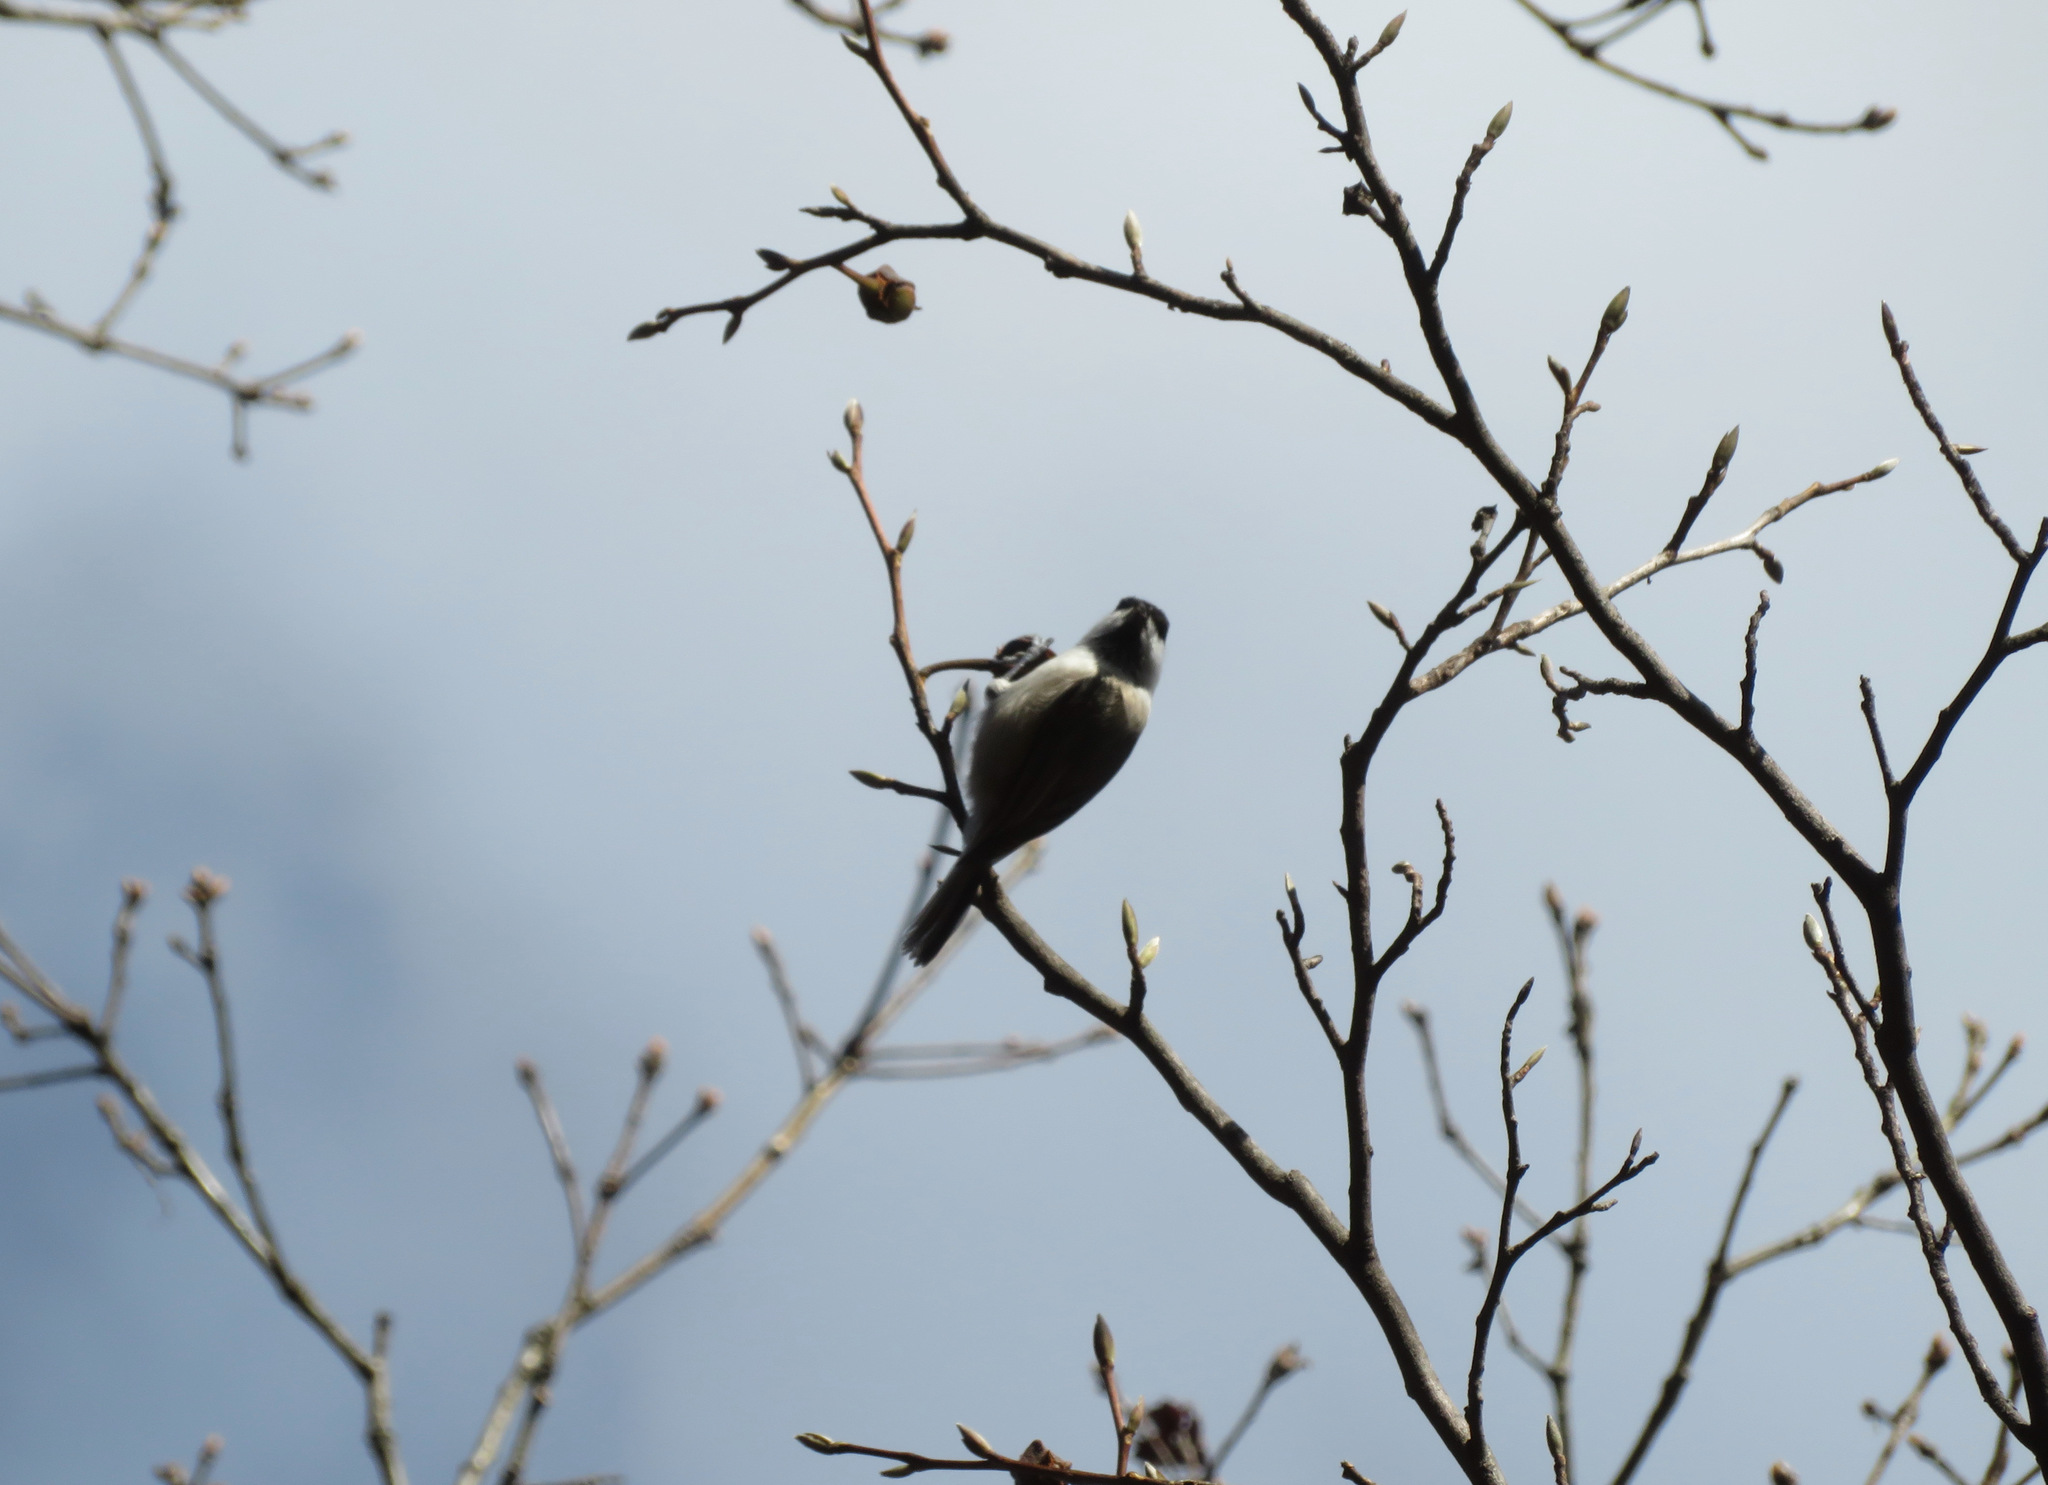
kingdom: Animalia
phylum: Chordata
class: Aves
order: Passeriformes
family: Paridae
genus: Poecile
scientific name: Poecile montanus
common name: Willow tit
